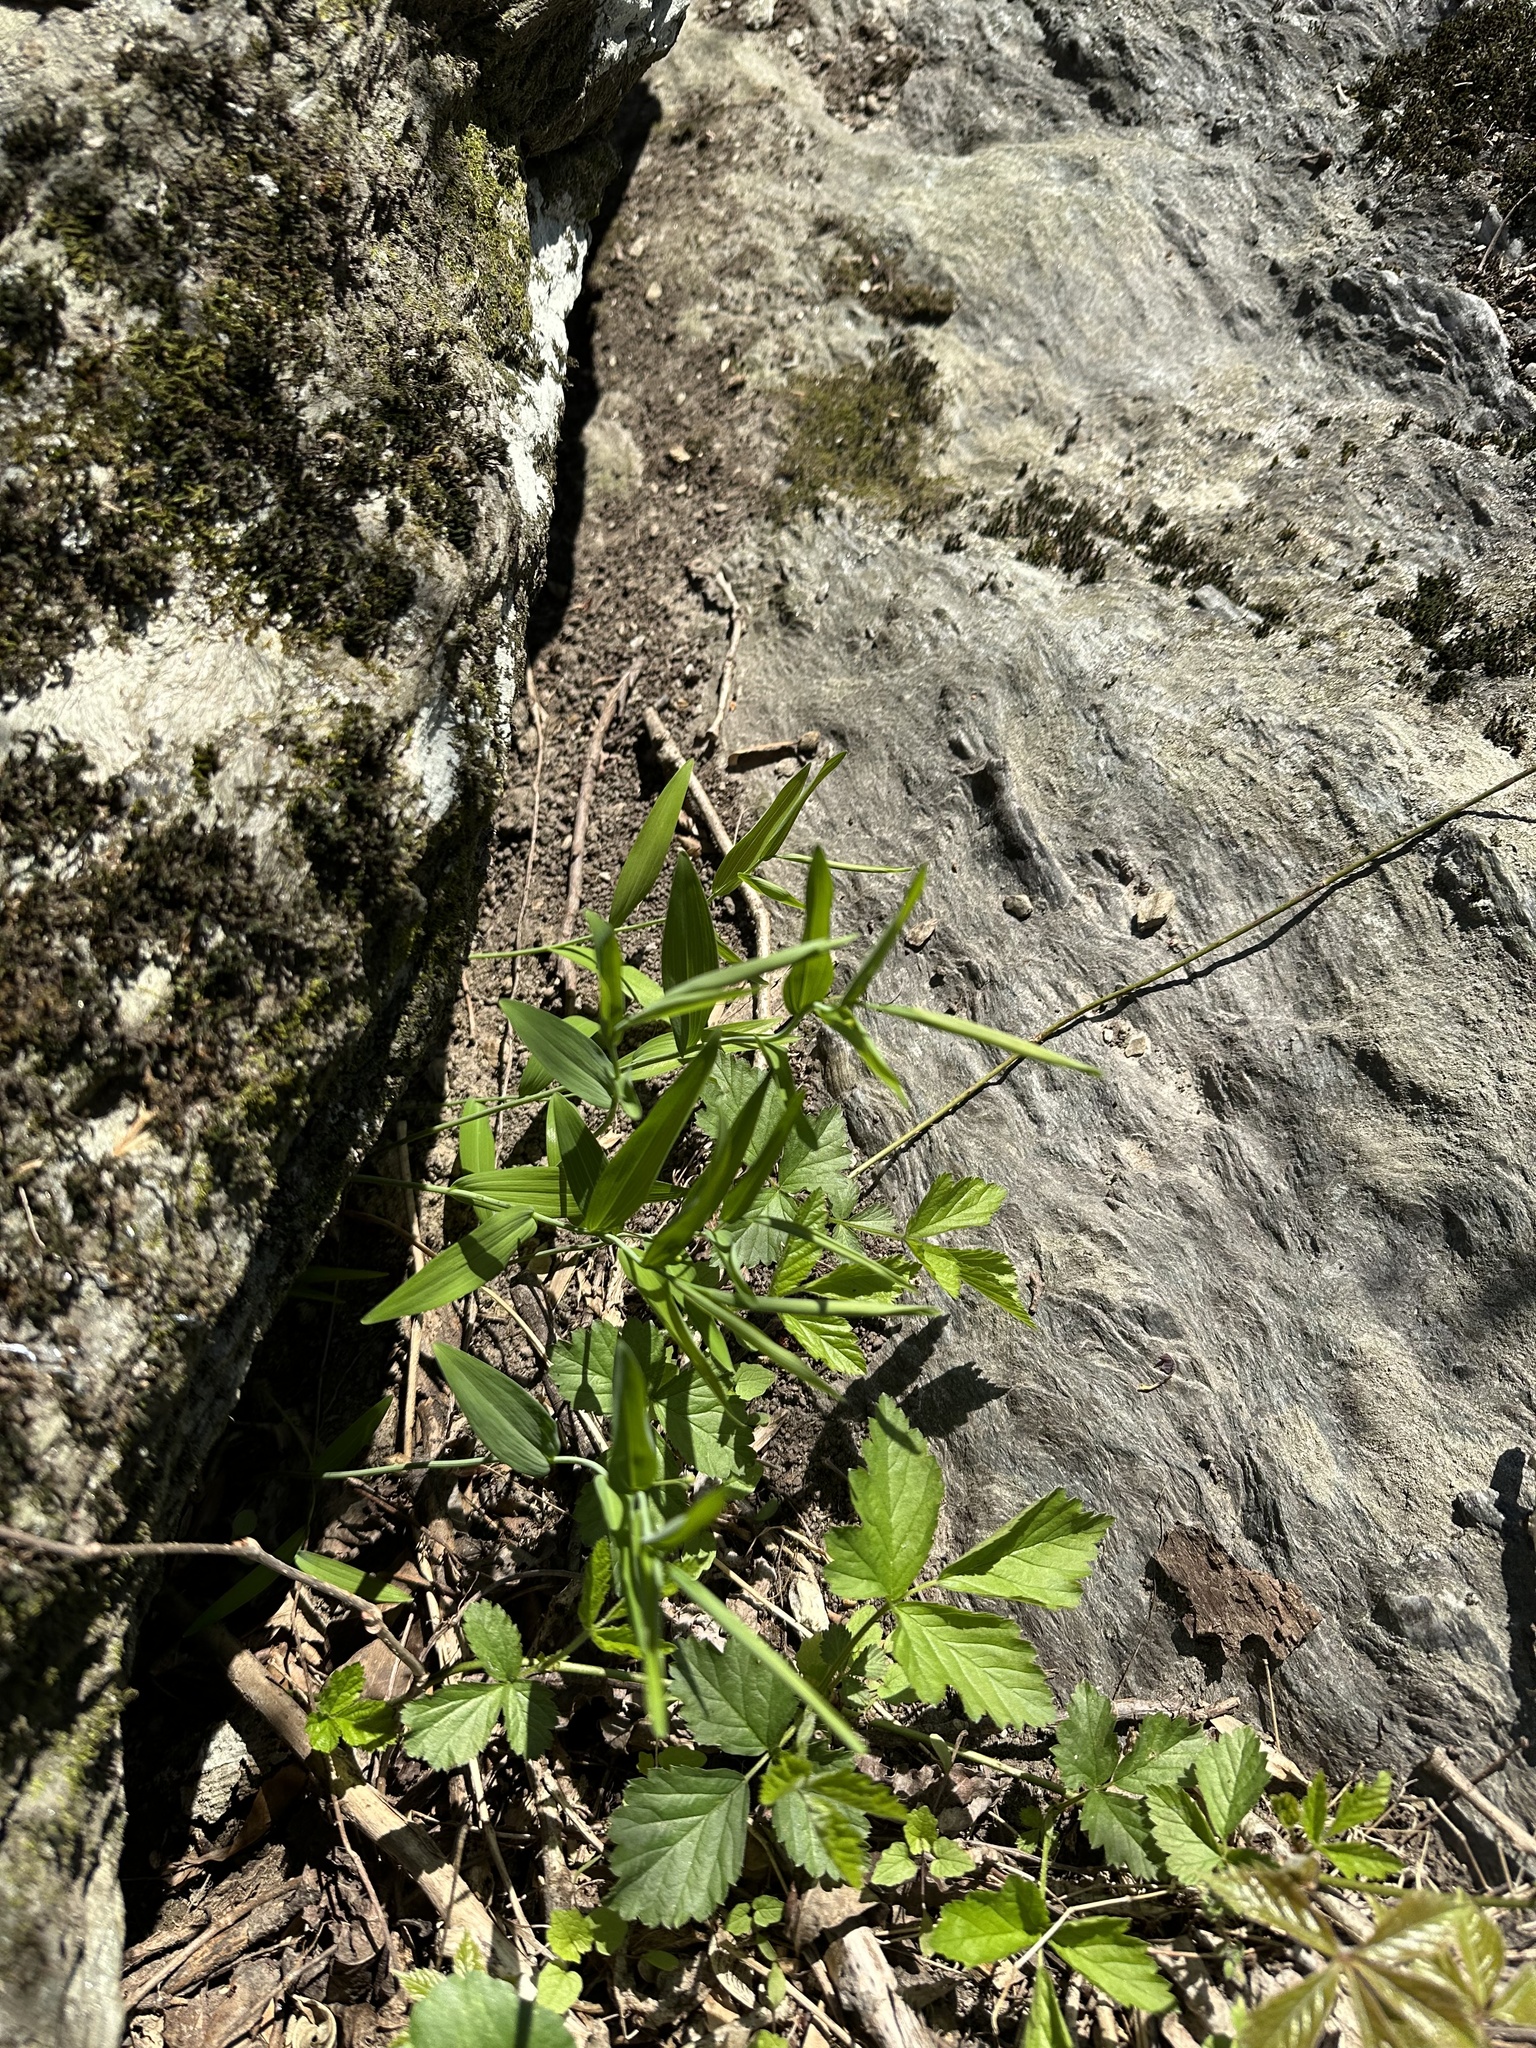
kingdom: Plantae
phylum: Tracheophyta
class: Liliopsida
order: Asparagales
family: Asparagaceae
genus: Polygonatum
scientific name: Polygonatum biflorum
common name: American solomon's-seal
